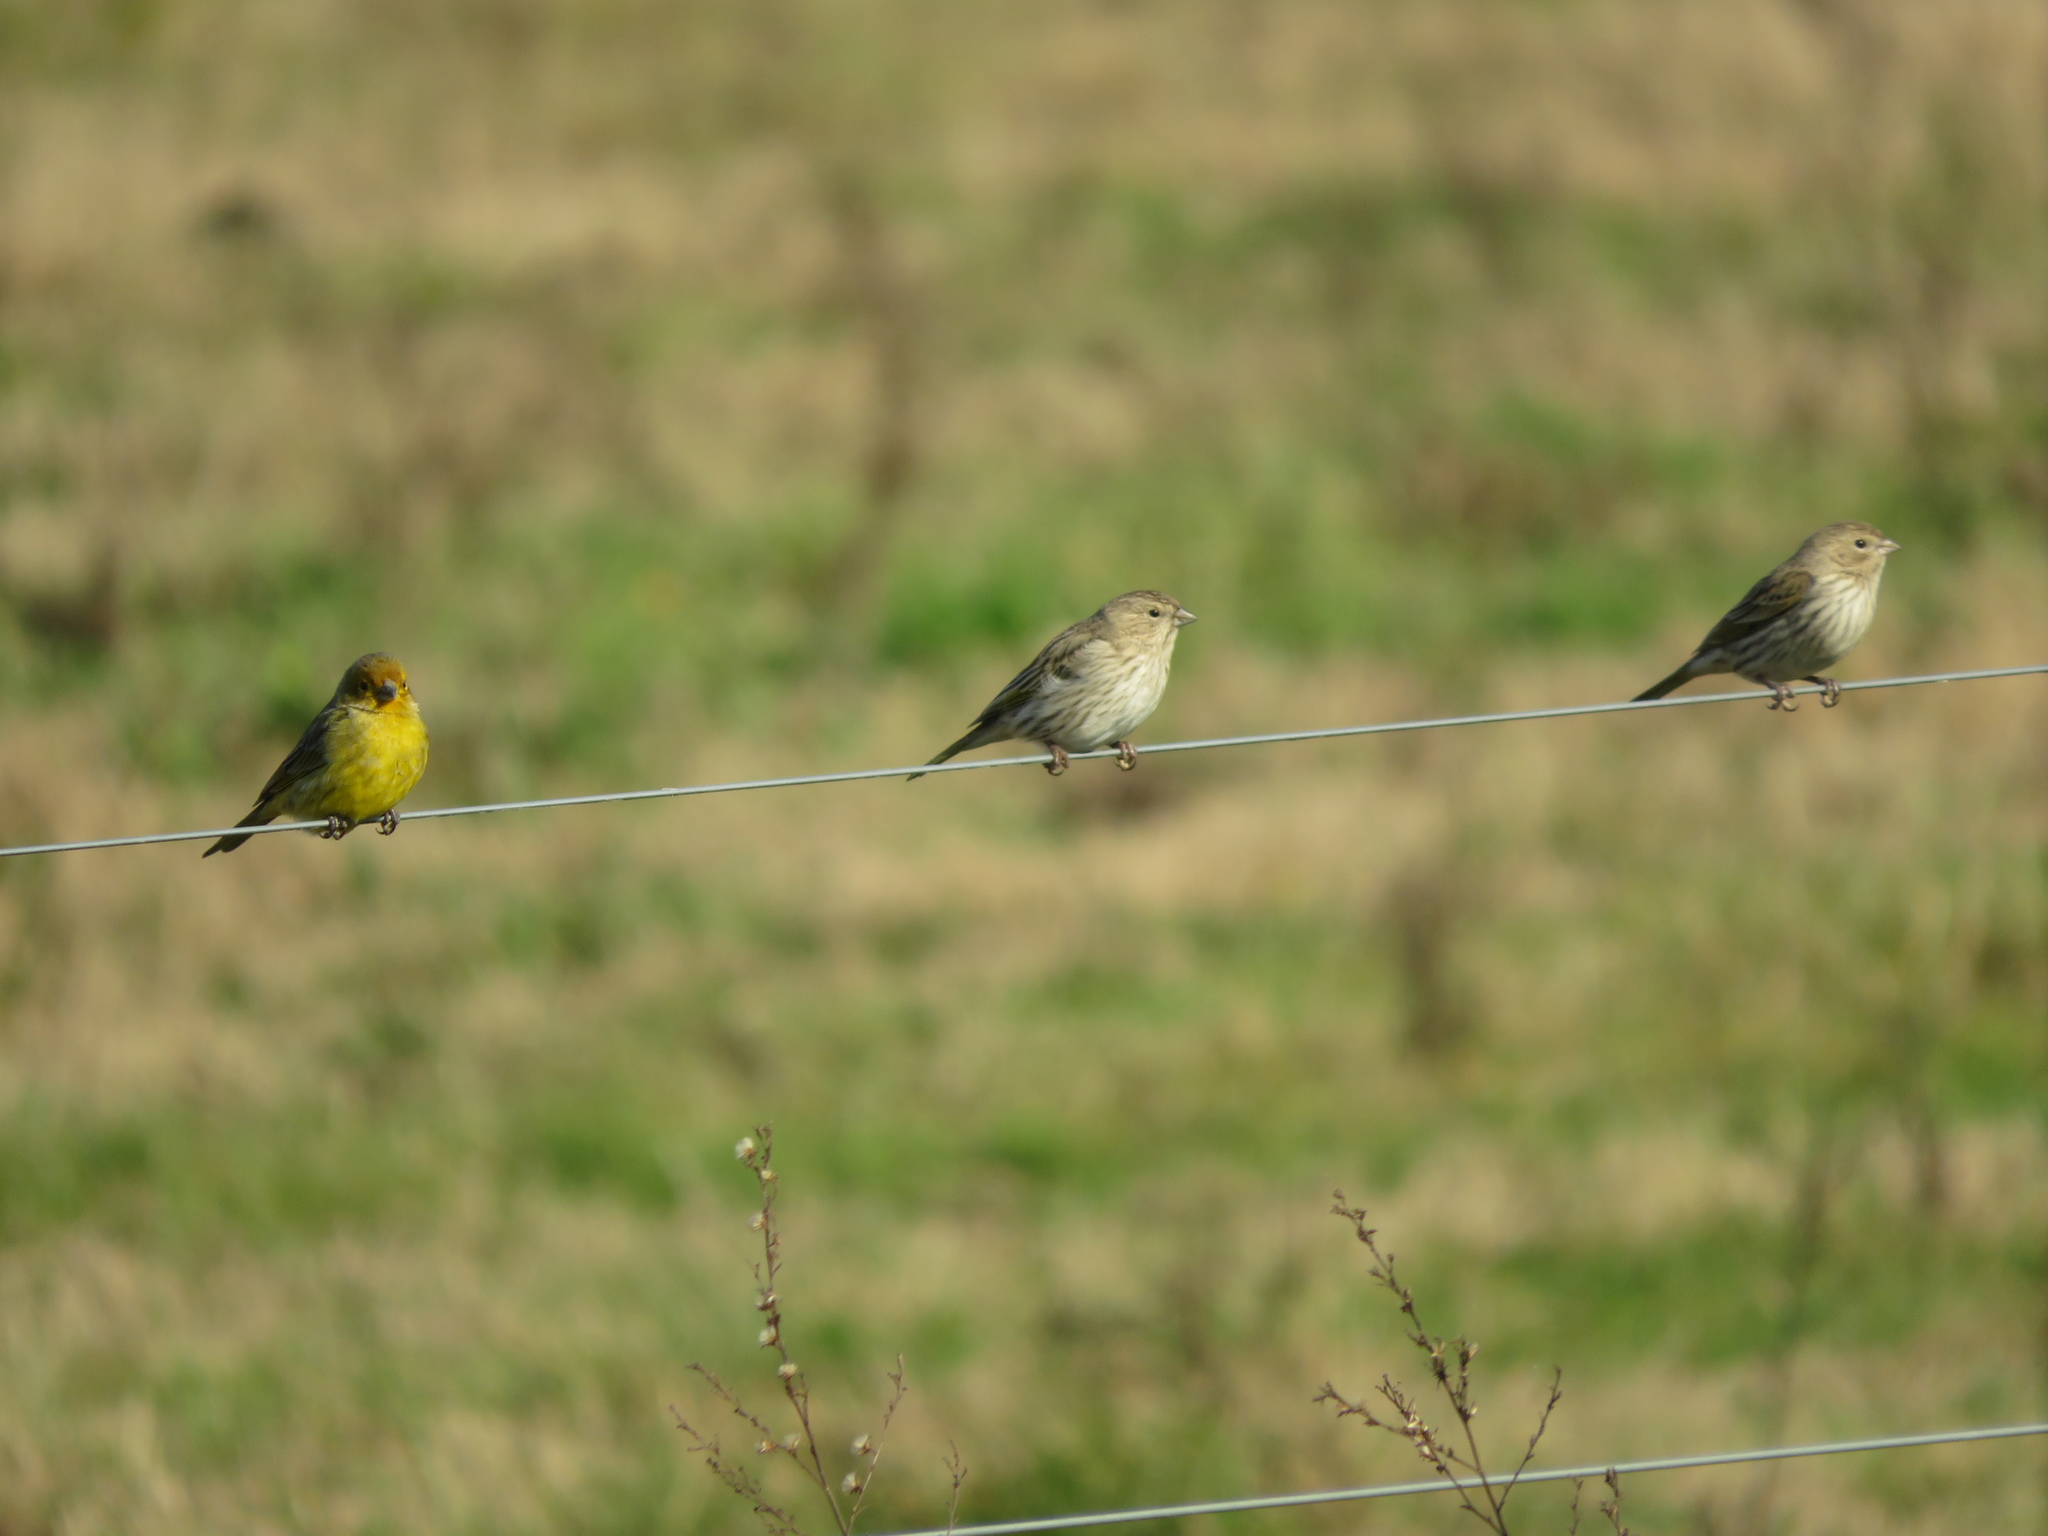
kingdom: Animalia
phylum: Chordata
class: Aves
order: Passeriformes
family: Thraupidae
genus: Sicalis
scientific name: Sicalis flaveola
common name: Saffron finch
